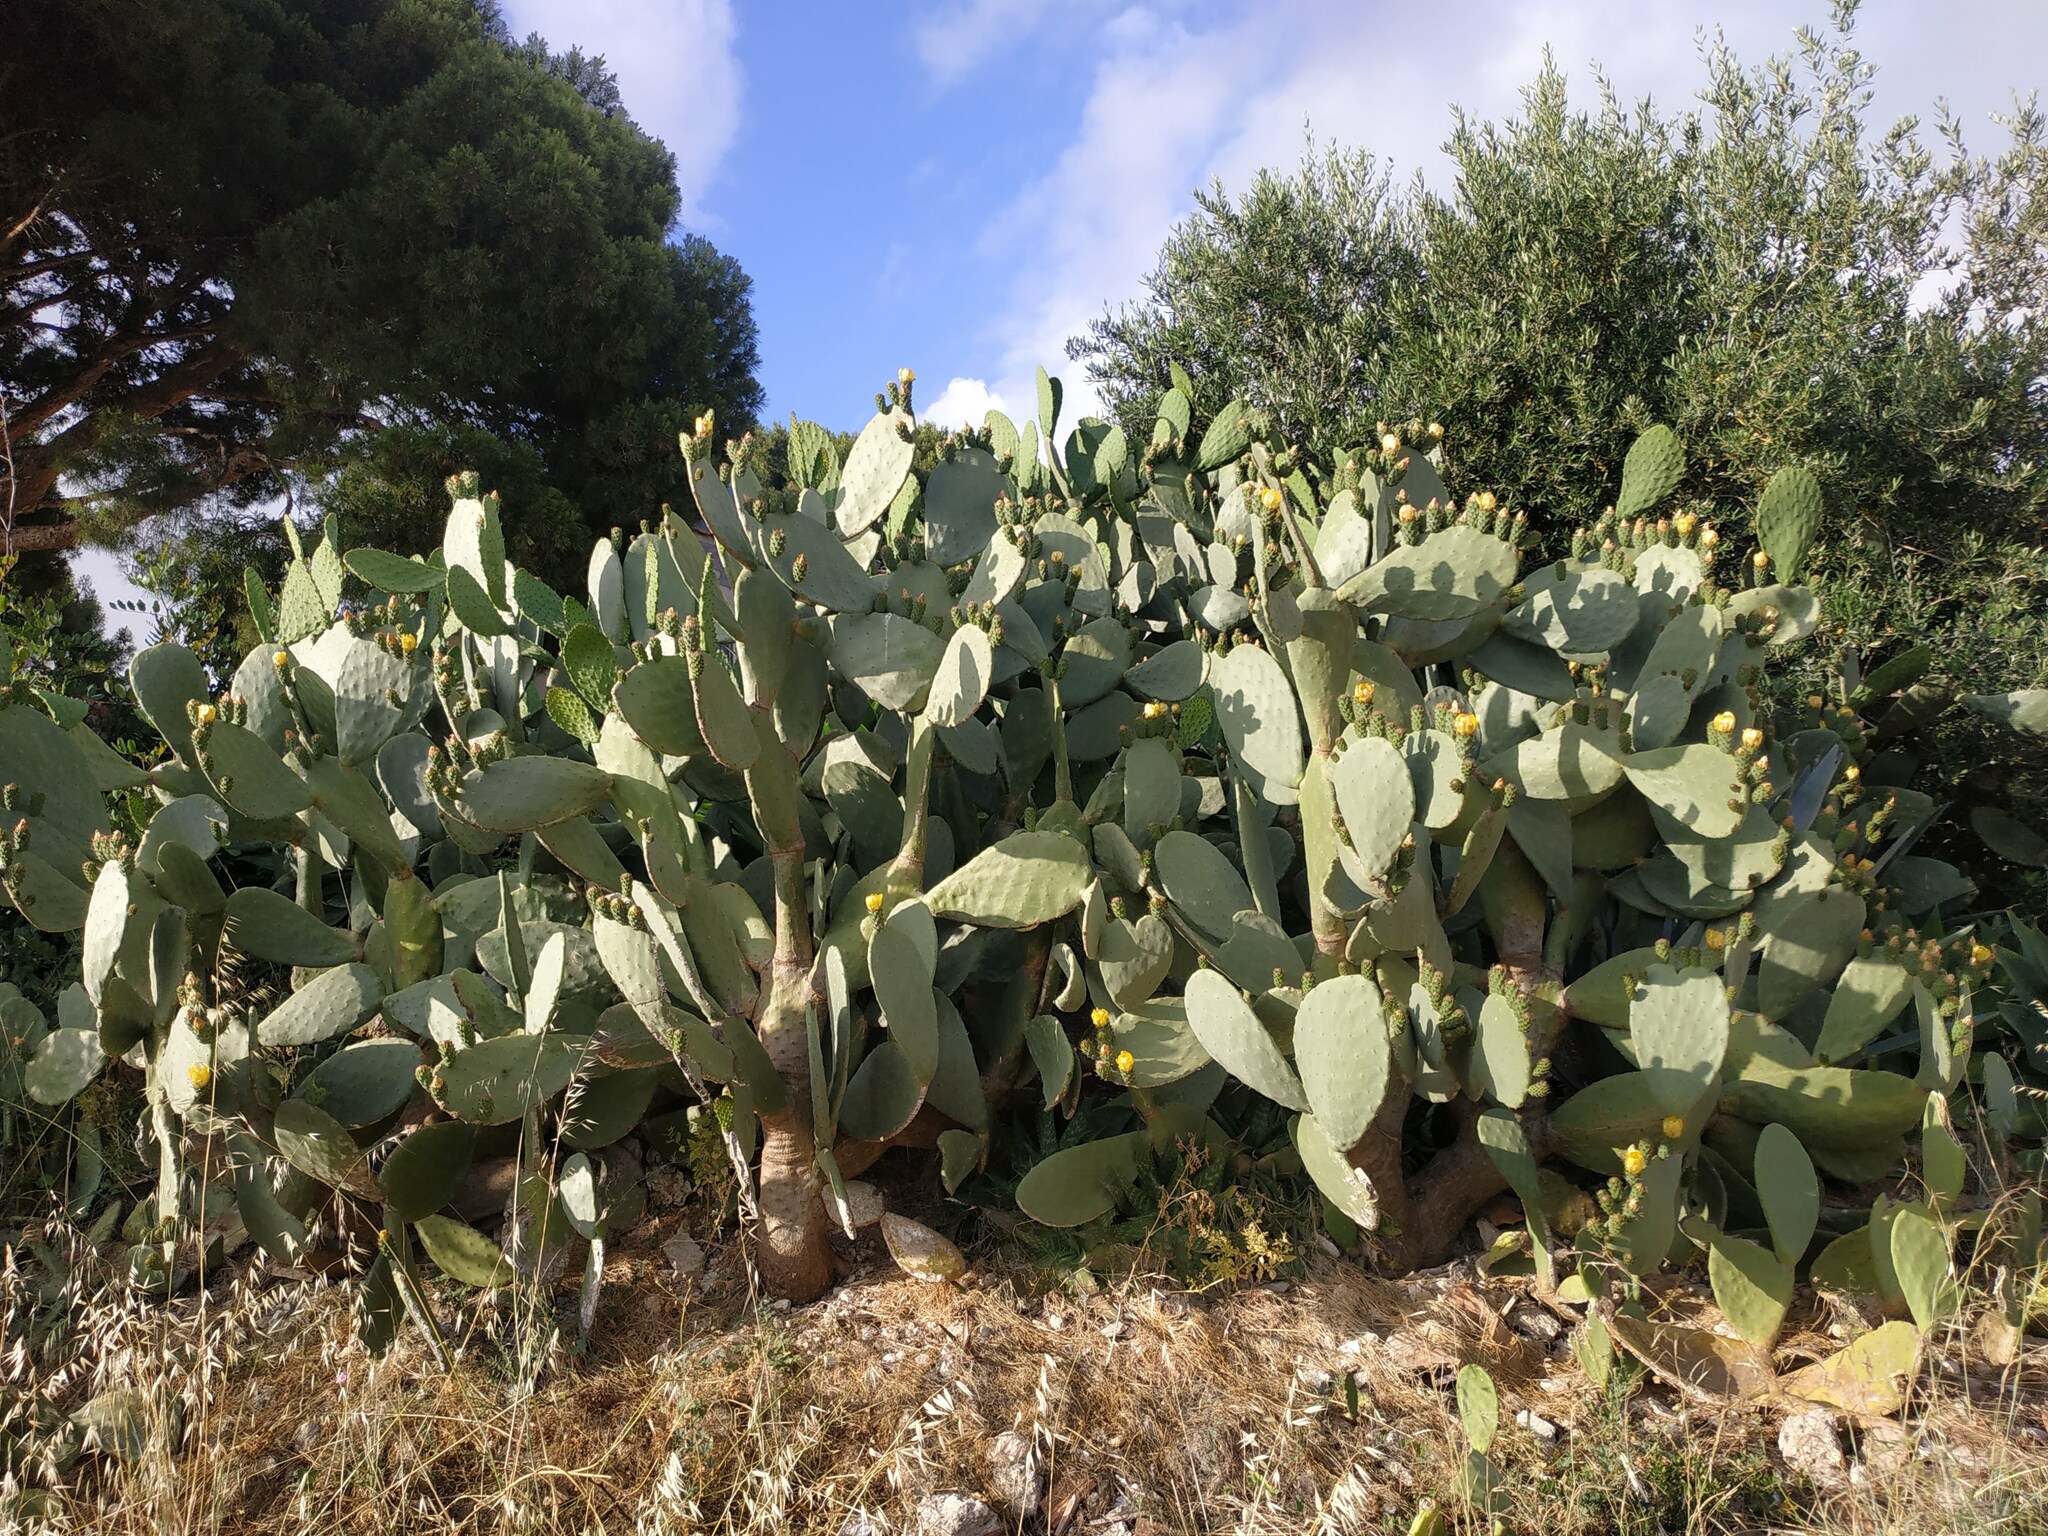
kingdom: Plantae
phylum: Tracheophyta
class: Magnoliopsida
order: Caryophyllales
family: Cactaceae
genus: Opuntia
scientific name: Opuntia ficus-indica
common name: Barbary fig
